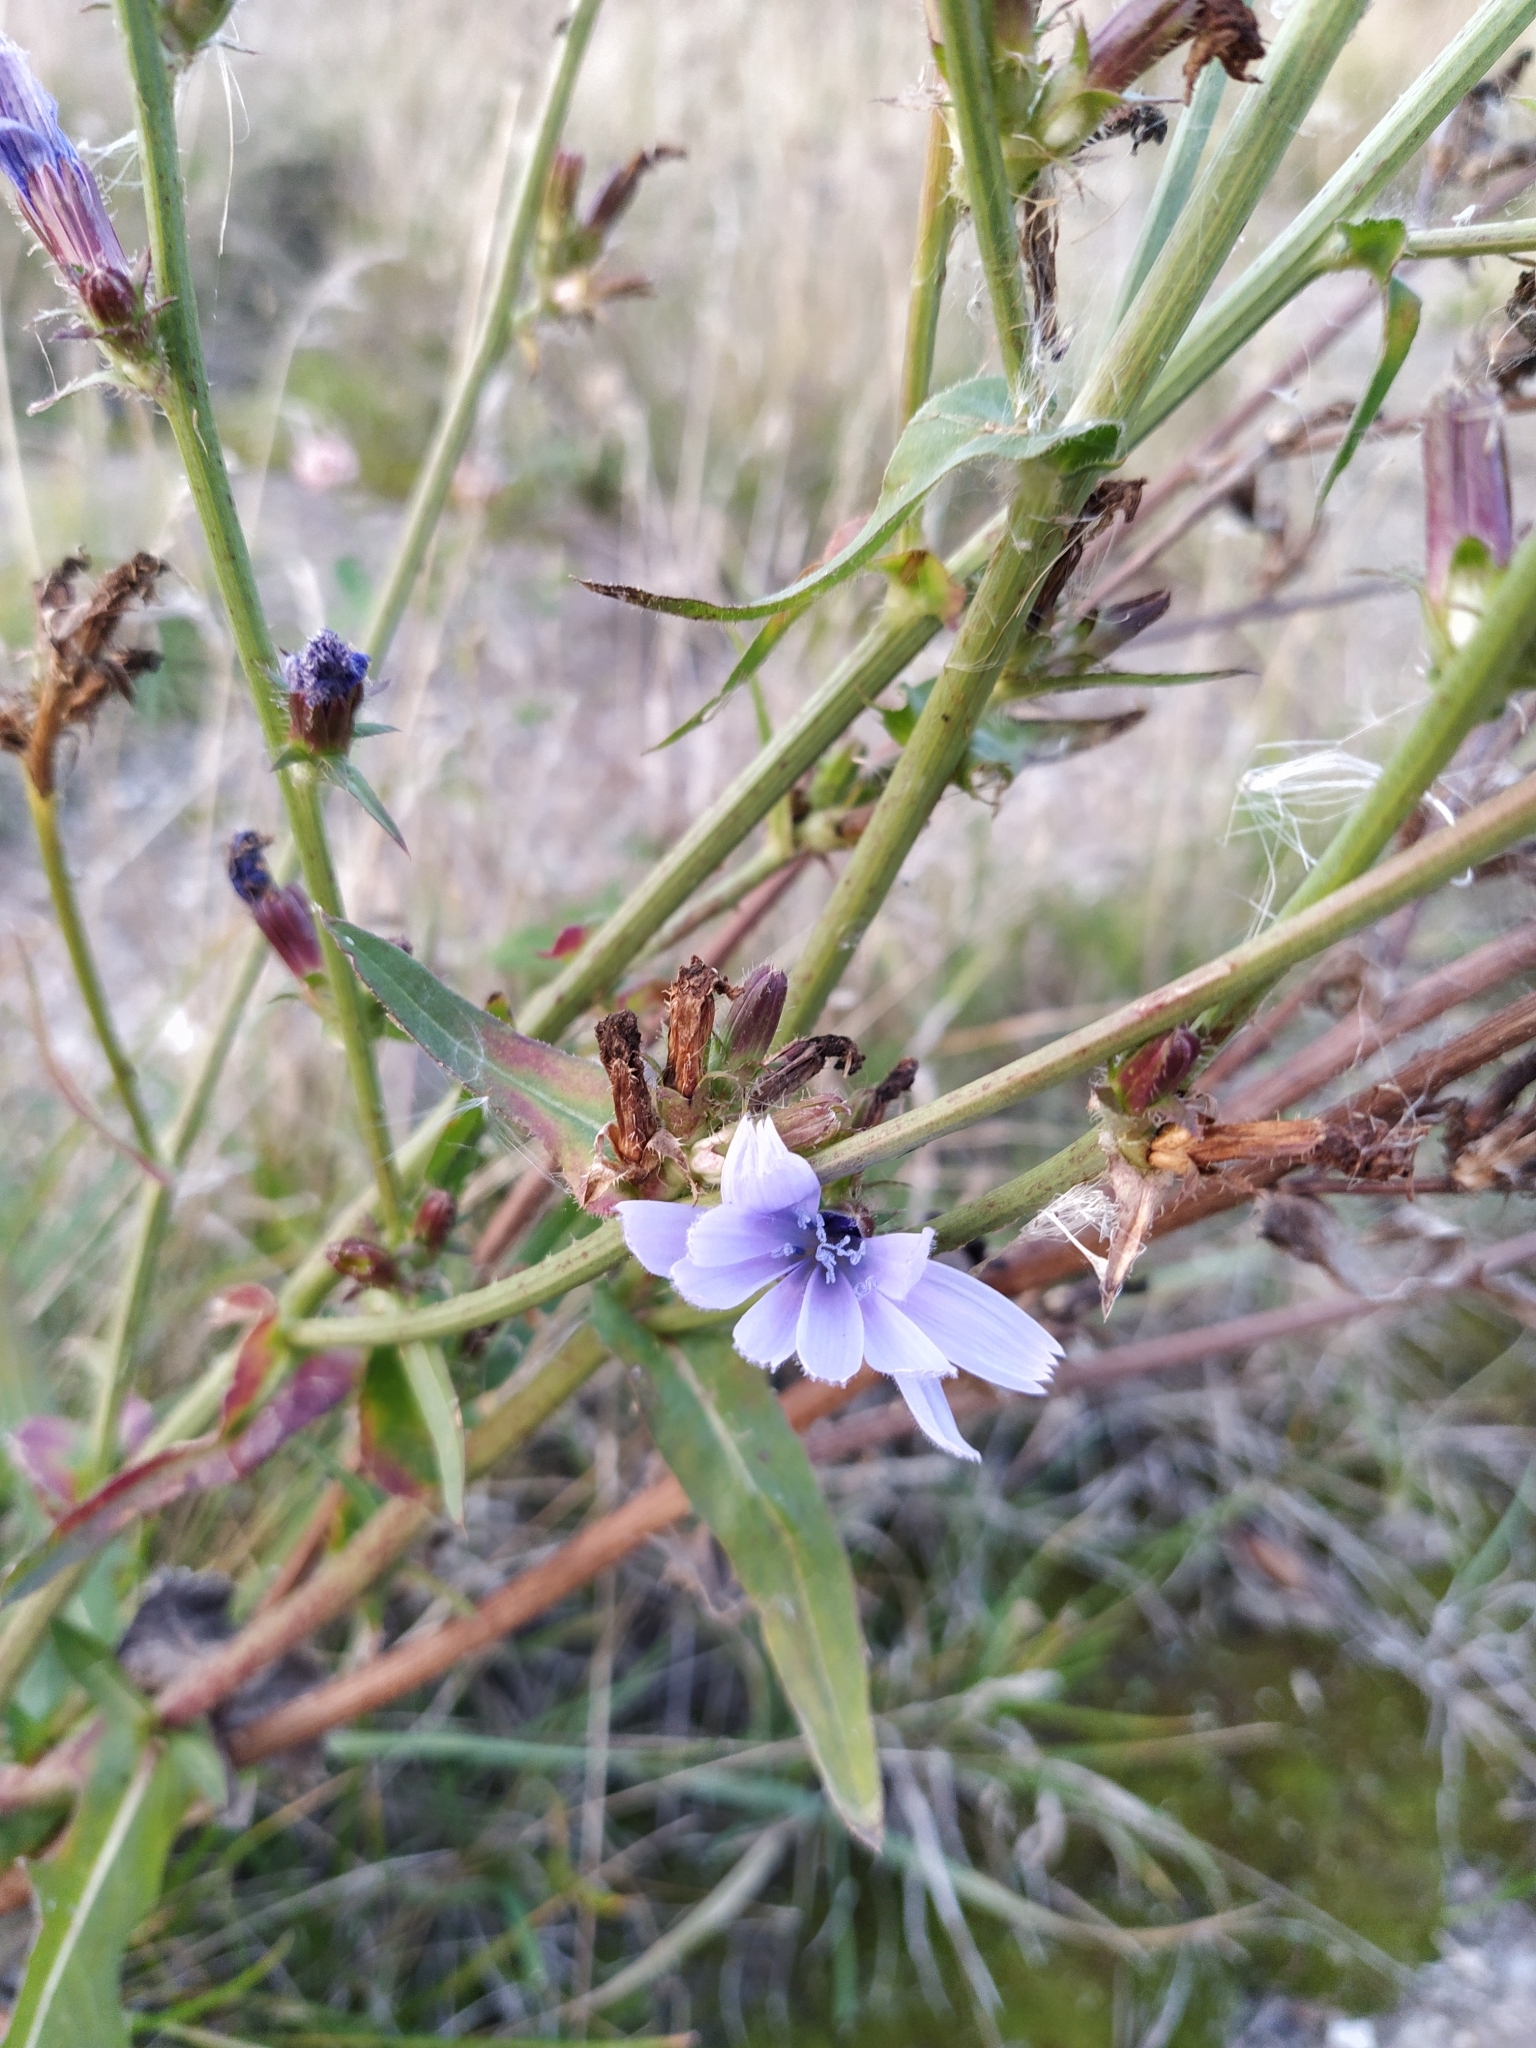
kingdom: Plantae
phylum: Tracheophyta
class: Magnoliopsida
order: Asterales
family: Asteraceae
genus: Cichorium
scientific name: Cichorium intybus
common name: Chicory
